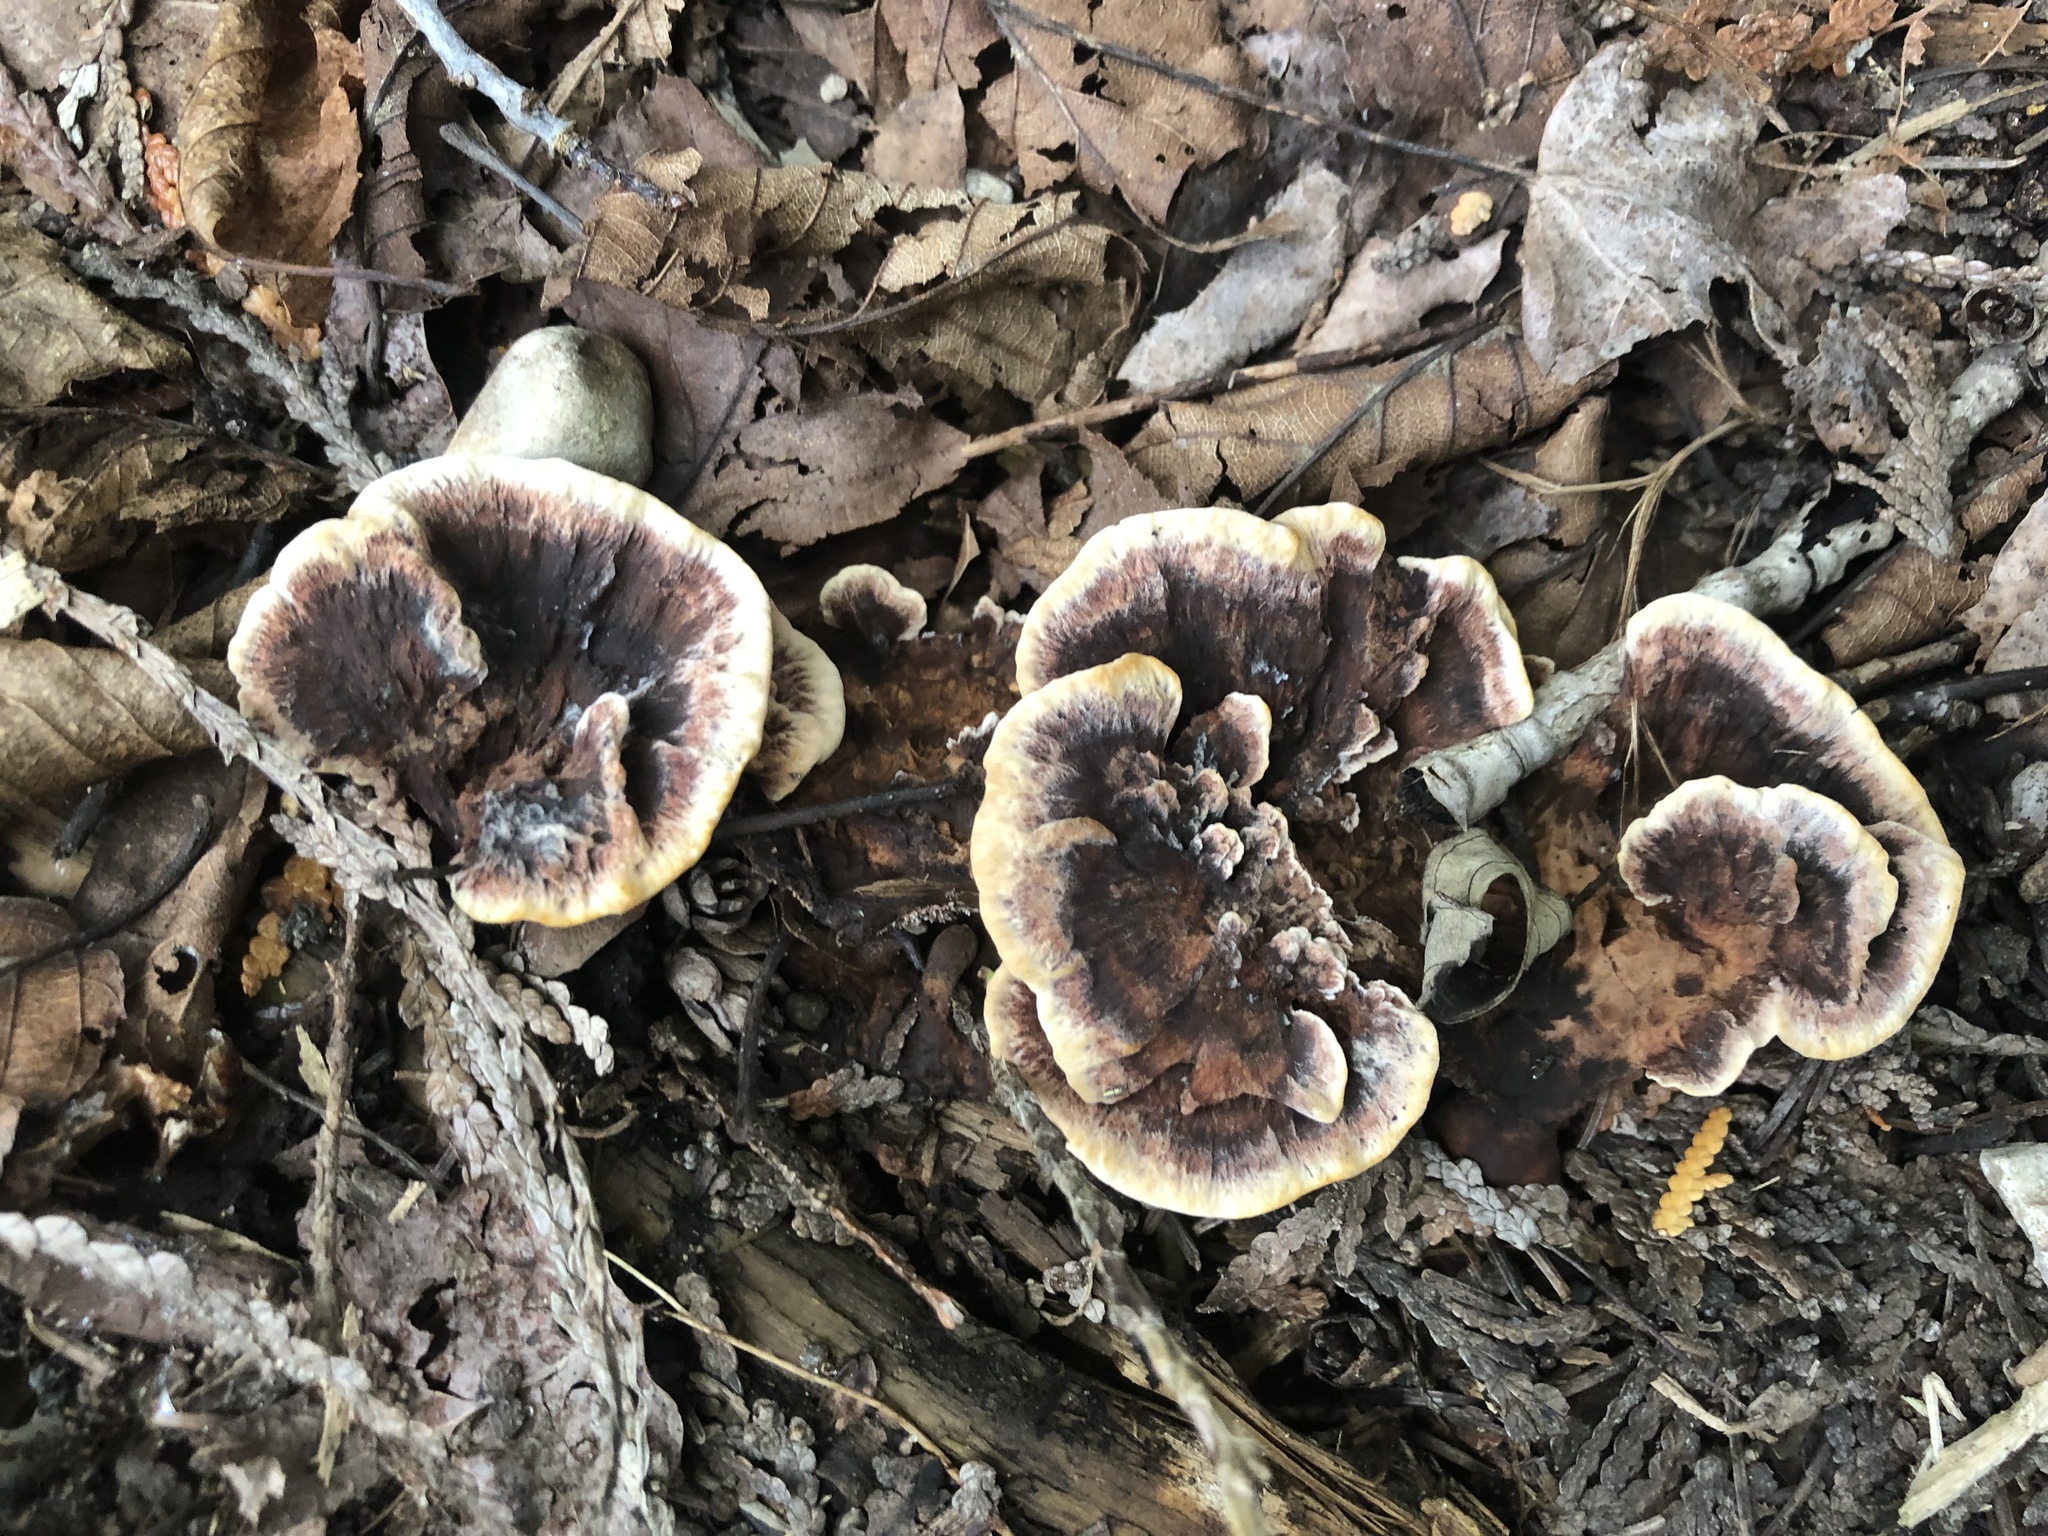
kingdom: Fungi
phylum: Basidiomycota
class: Agaricomycetes
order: Thelephorales
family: Thelephoraceae
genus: Thelephora
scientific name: Thelephora terrestris
